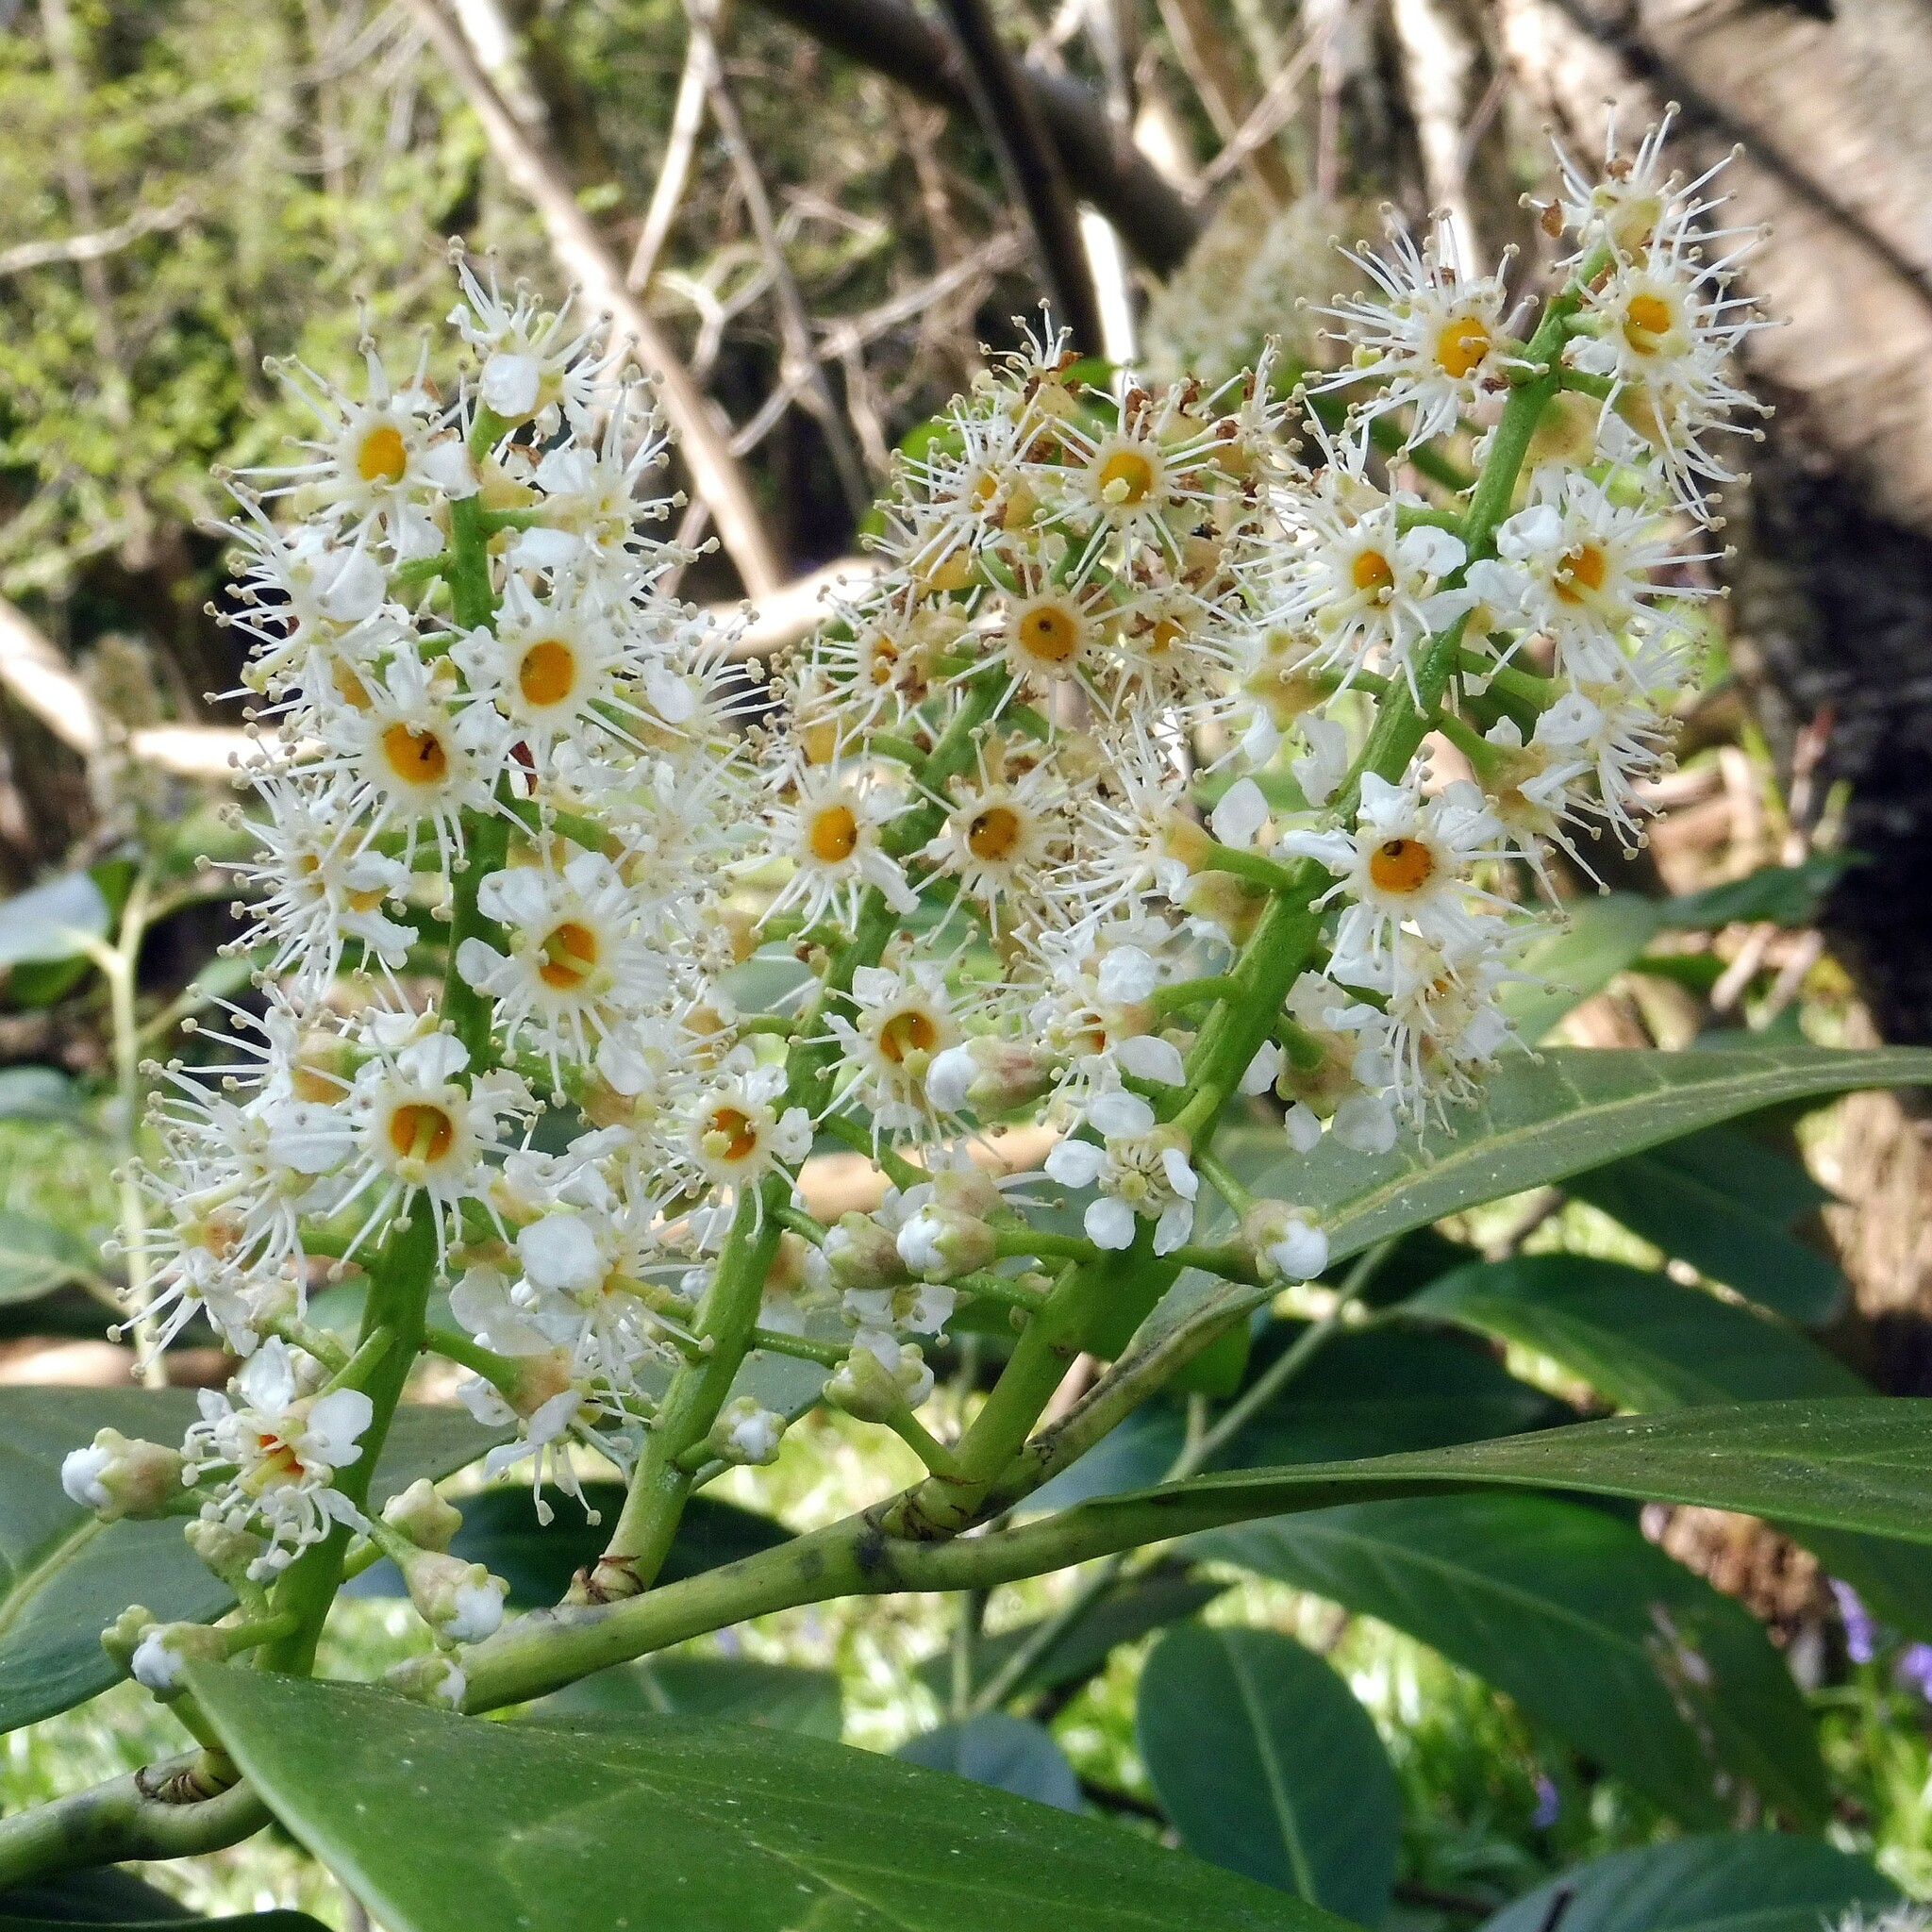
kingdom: Plantae
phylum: Tracheophyta
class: Magnoliopsida
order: Rosales
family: Rosaceae
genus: Prunus
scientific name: Prunus laurocerasus
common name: Cherry laurel
